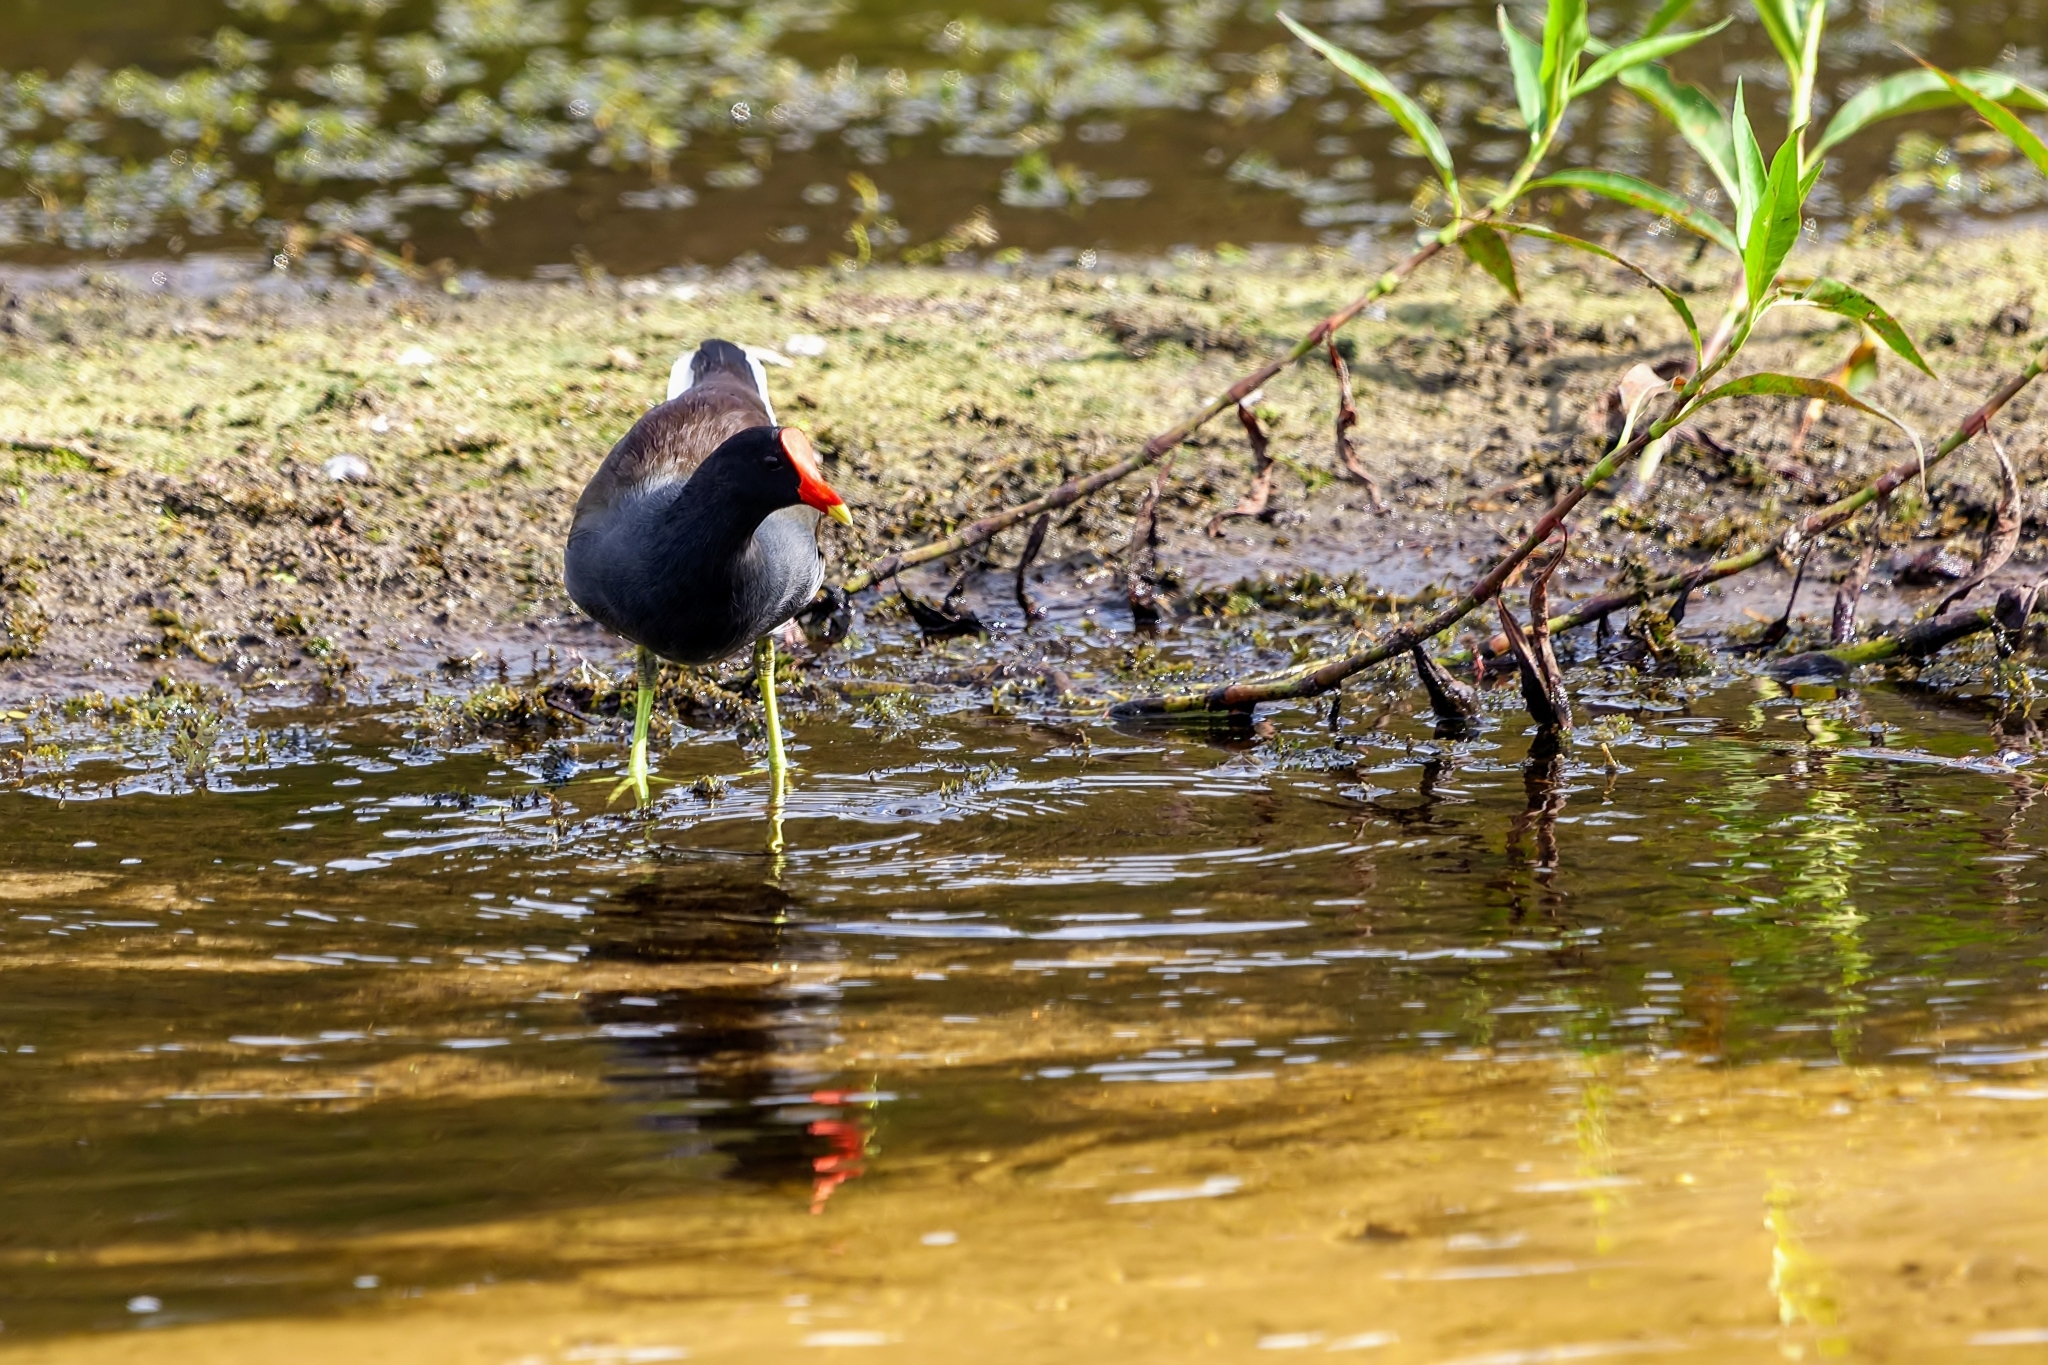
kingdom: Animalia
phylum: Chordata
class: Aves
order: Gruiformes
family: Rallidae
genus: Gallinula
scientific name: Gallinula chloropus
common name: Common moorhen
